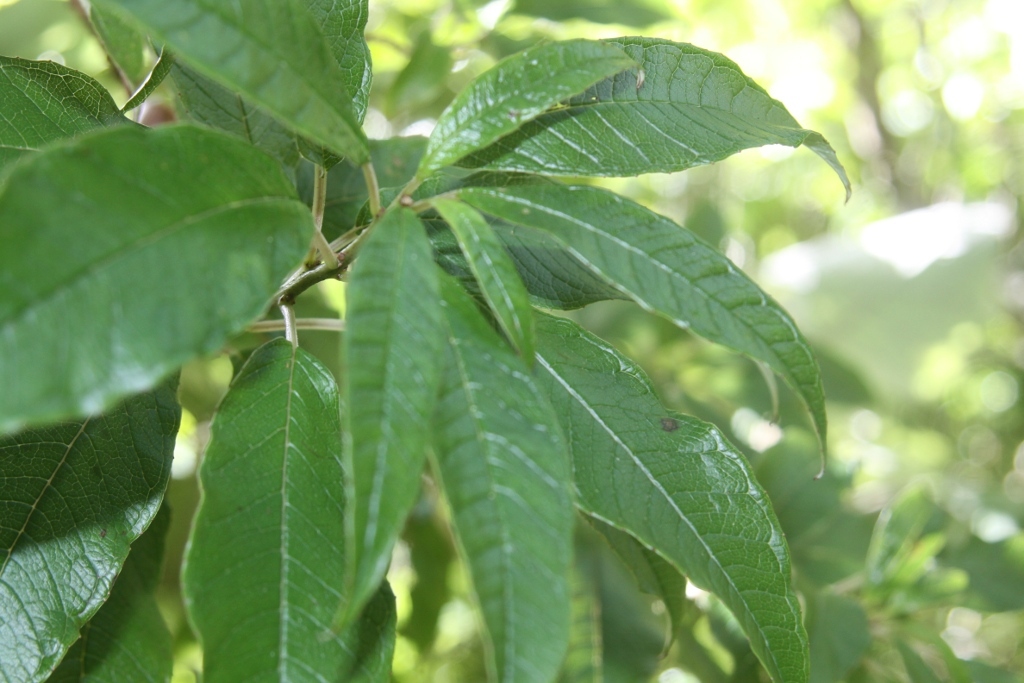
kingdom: Plantae
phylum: Tracheophyta
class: Magnoliopsida
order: Myrtales
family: Onagraceae
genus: Fuchsia
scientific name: Fuchsia excorticata
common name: Tree fuchsia
